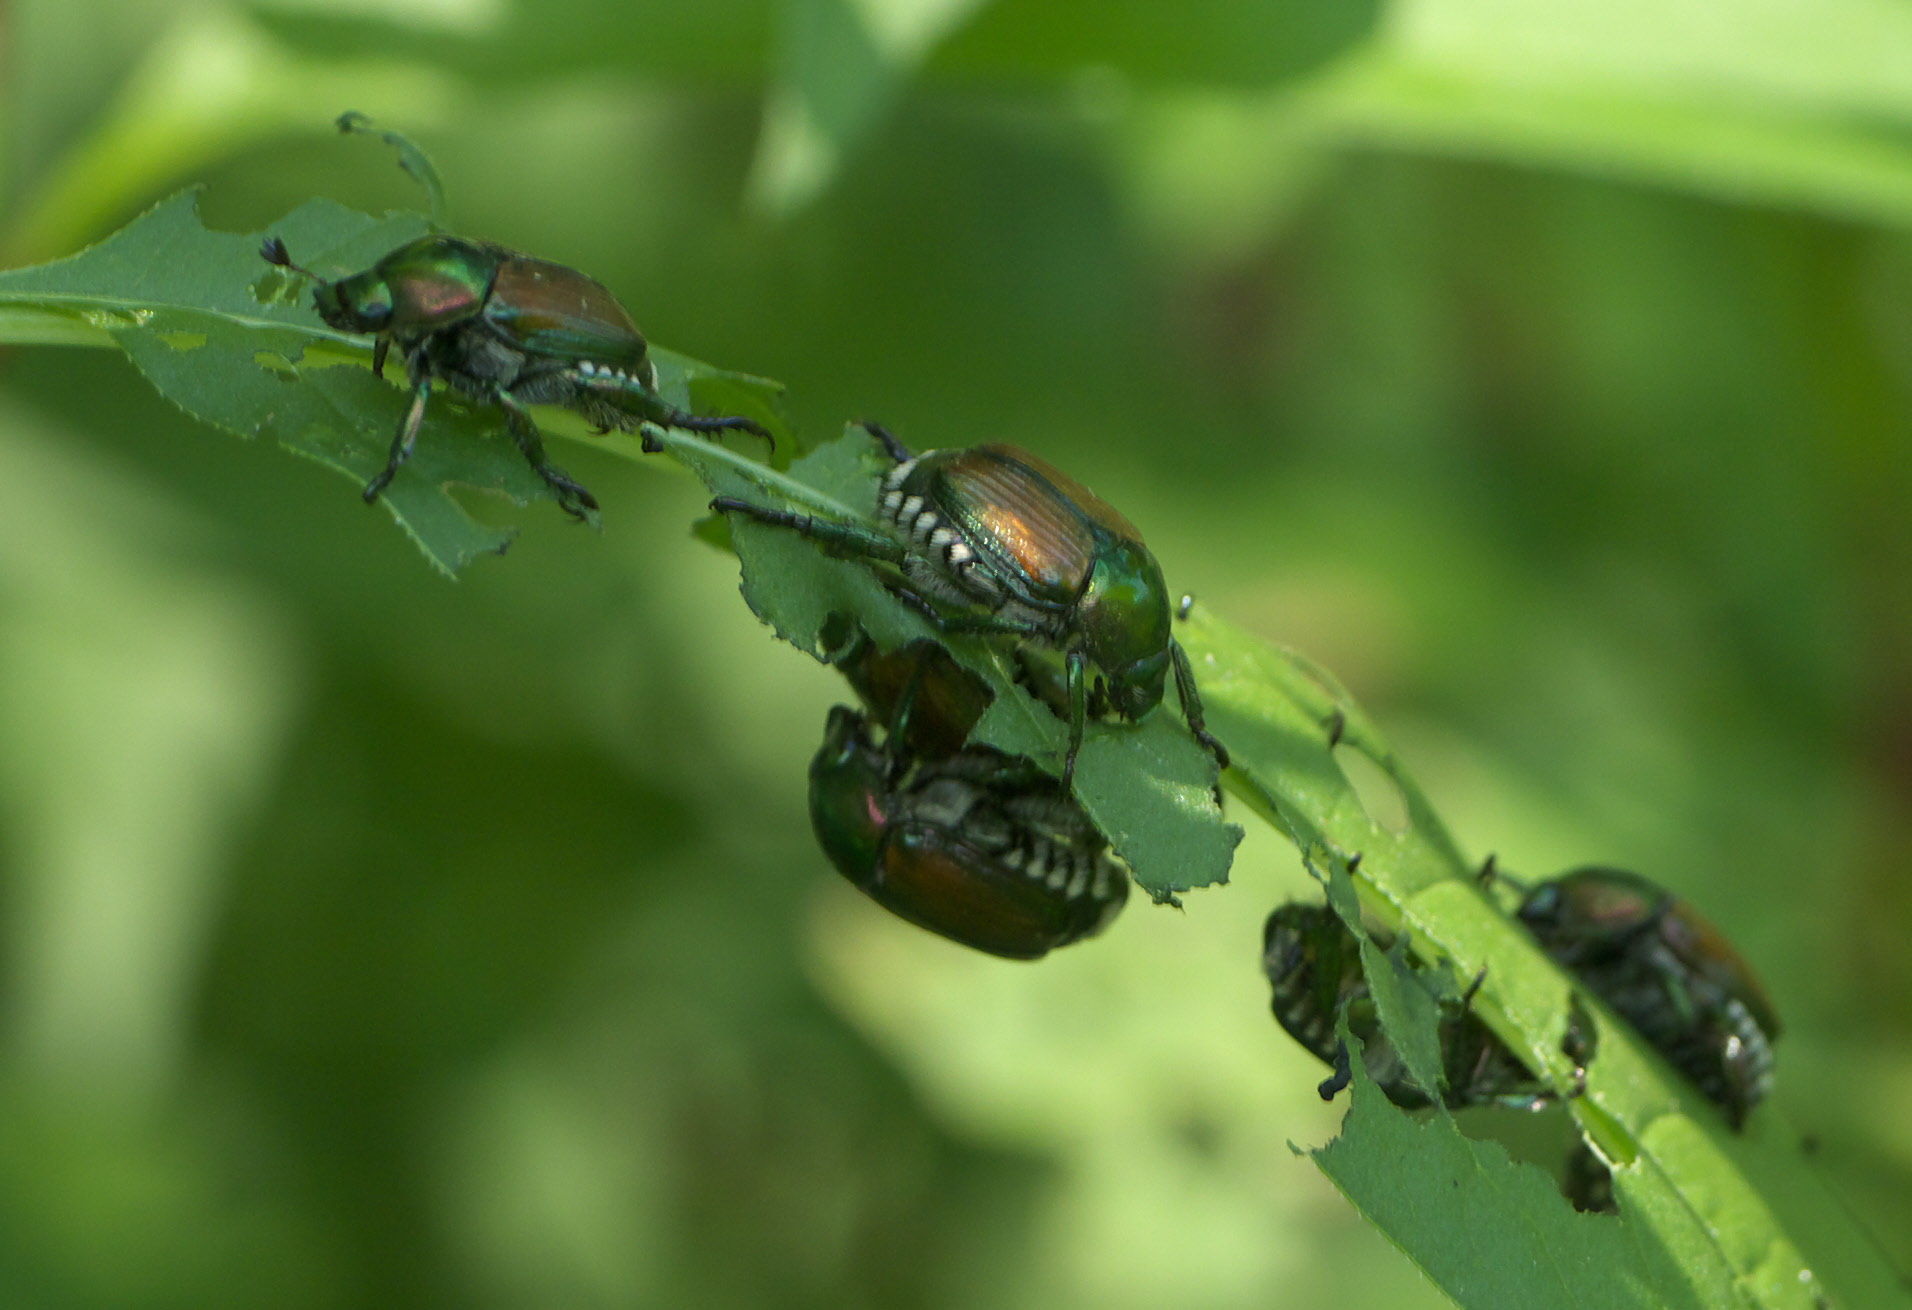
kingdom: Animalia
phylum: Arthropoda
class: Insecta
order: Coleoptera
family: Scarabaeidae
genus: Popillia
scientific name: Popillia japonica
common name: Japanese beetle
